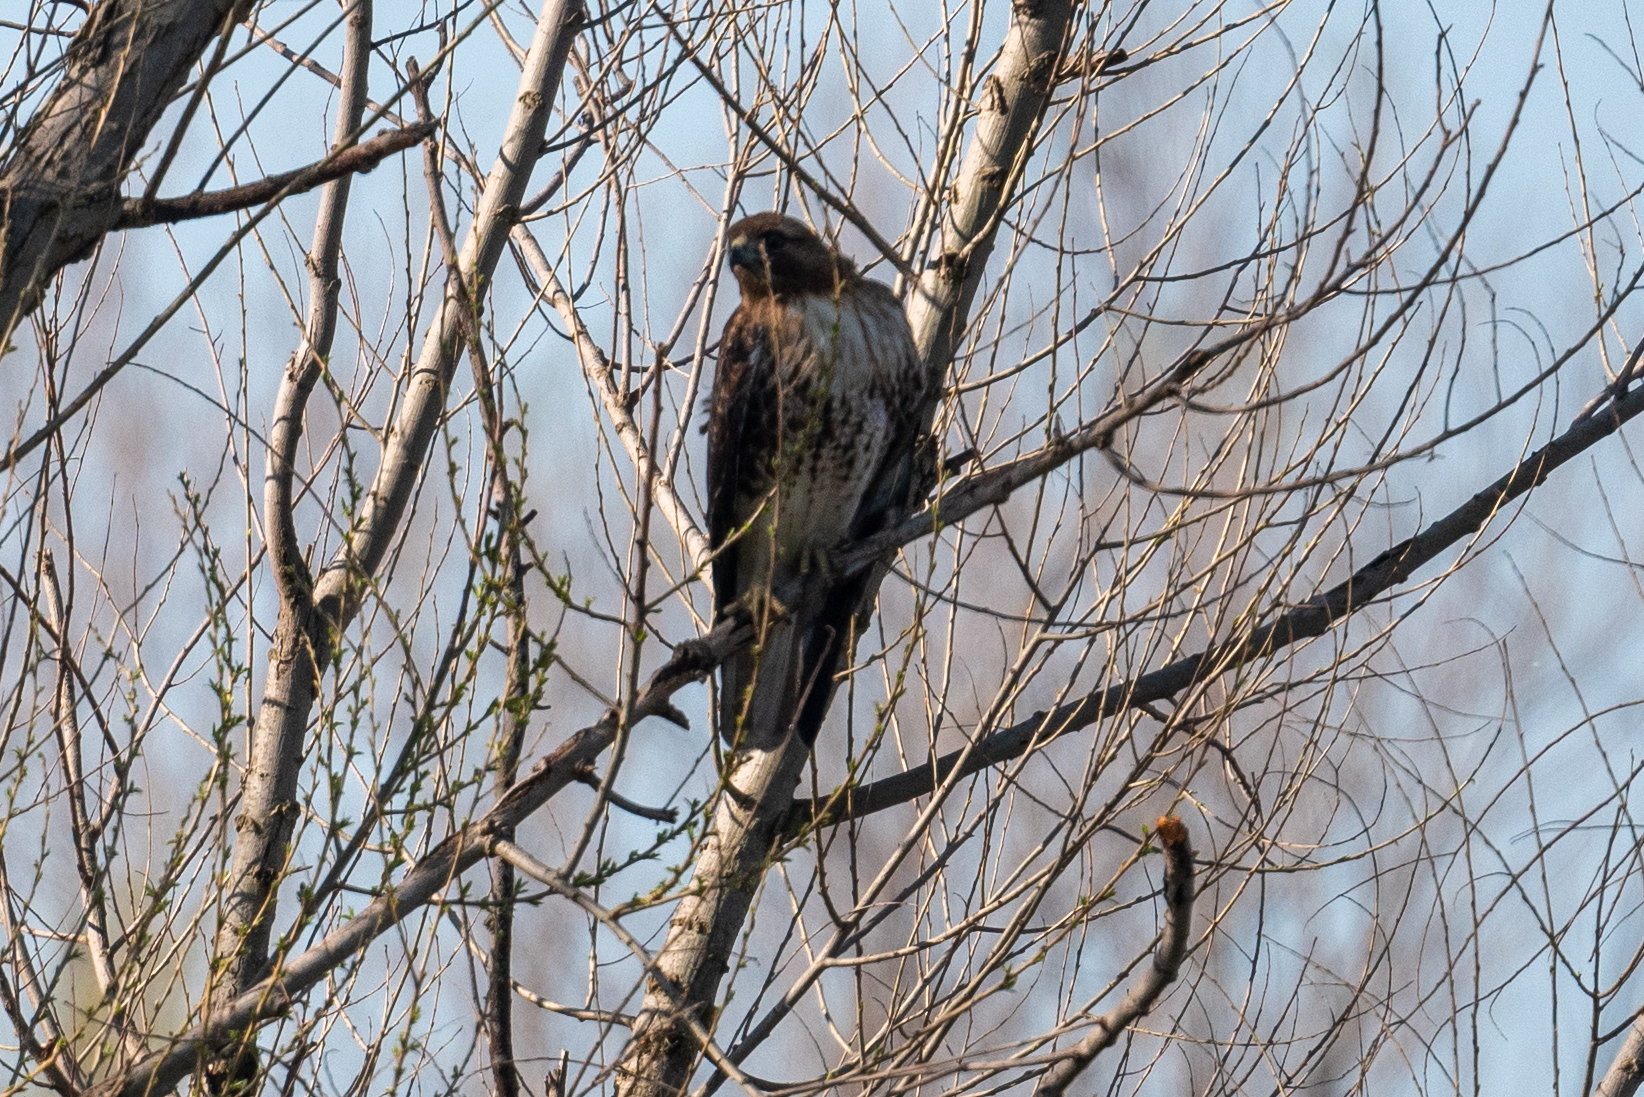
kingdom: Animalia
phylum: Chordata
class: Aves
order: Accipitriformes
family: Accipitridae
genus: Buteo
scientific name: Buteo jamaicensis
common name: Red-tailed hawk
